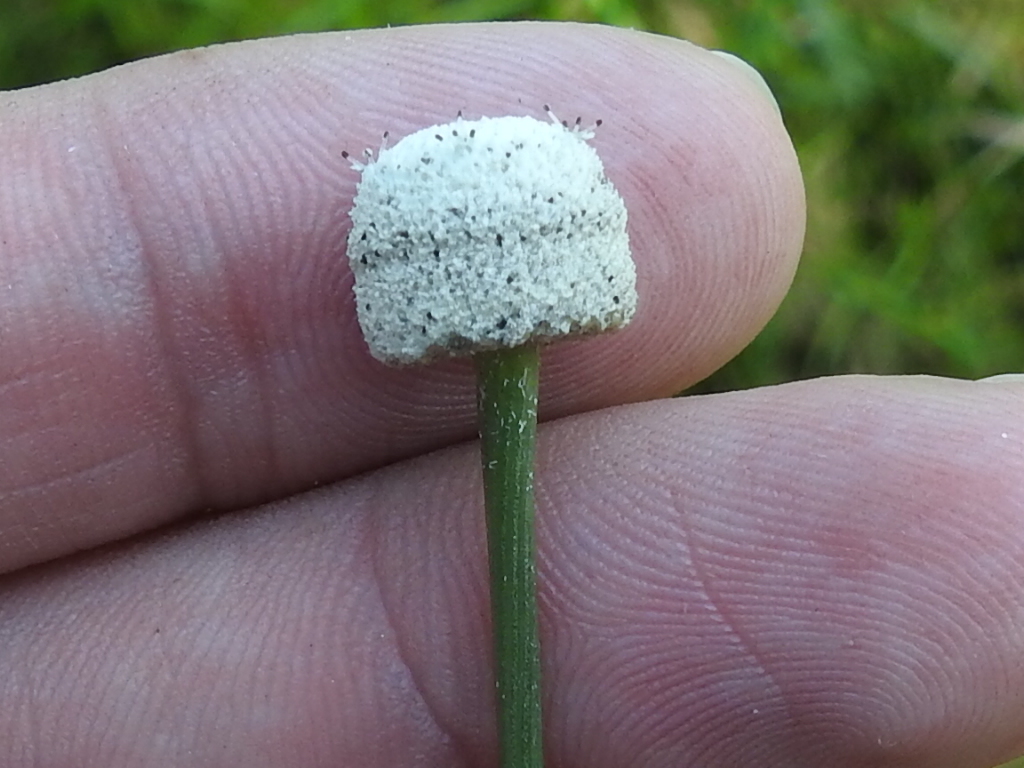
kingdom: Plantae
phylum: Tracheophyta
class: Liliopsida
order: Poales
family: Eriocaulaceae
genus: Eriocaulon
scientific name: Eriocaulon decangulare
